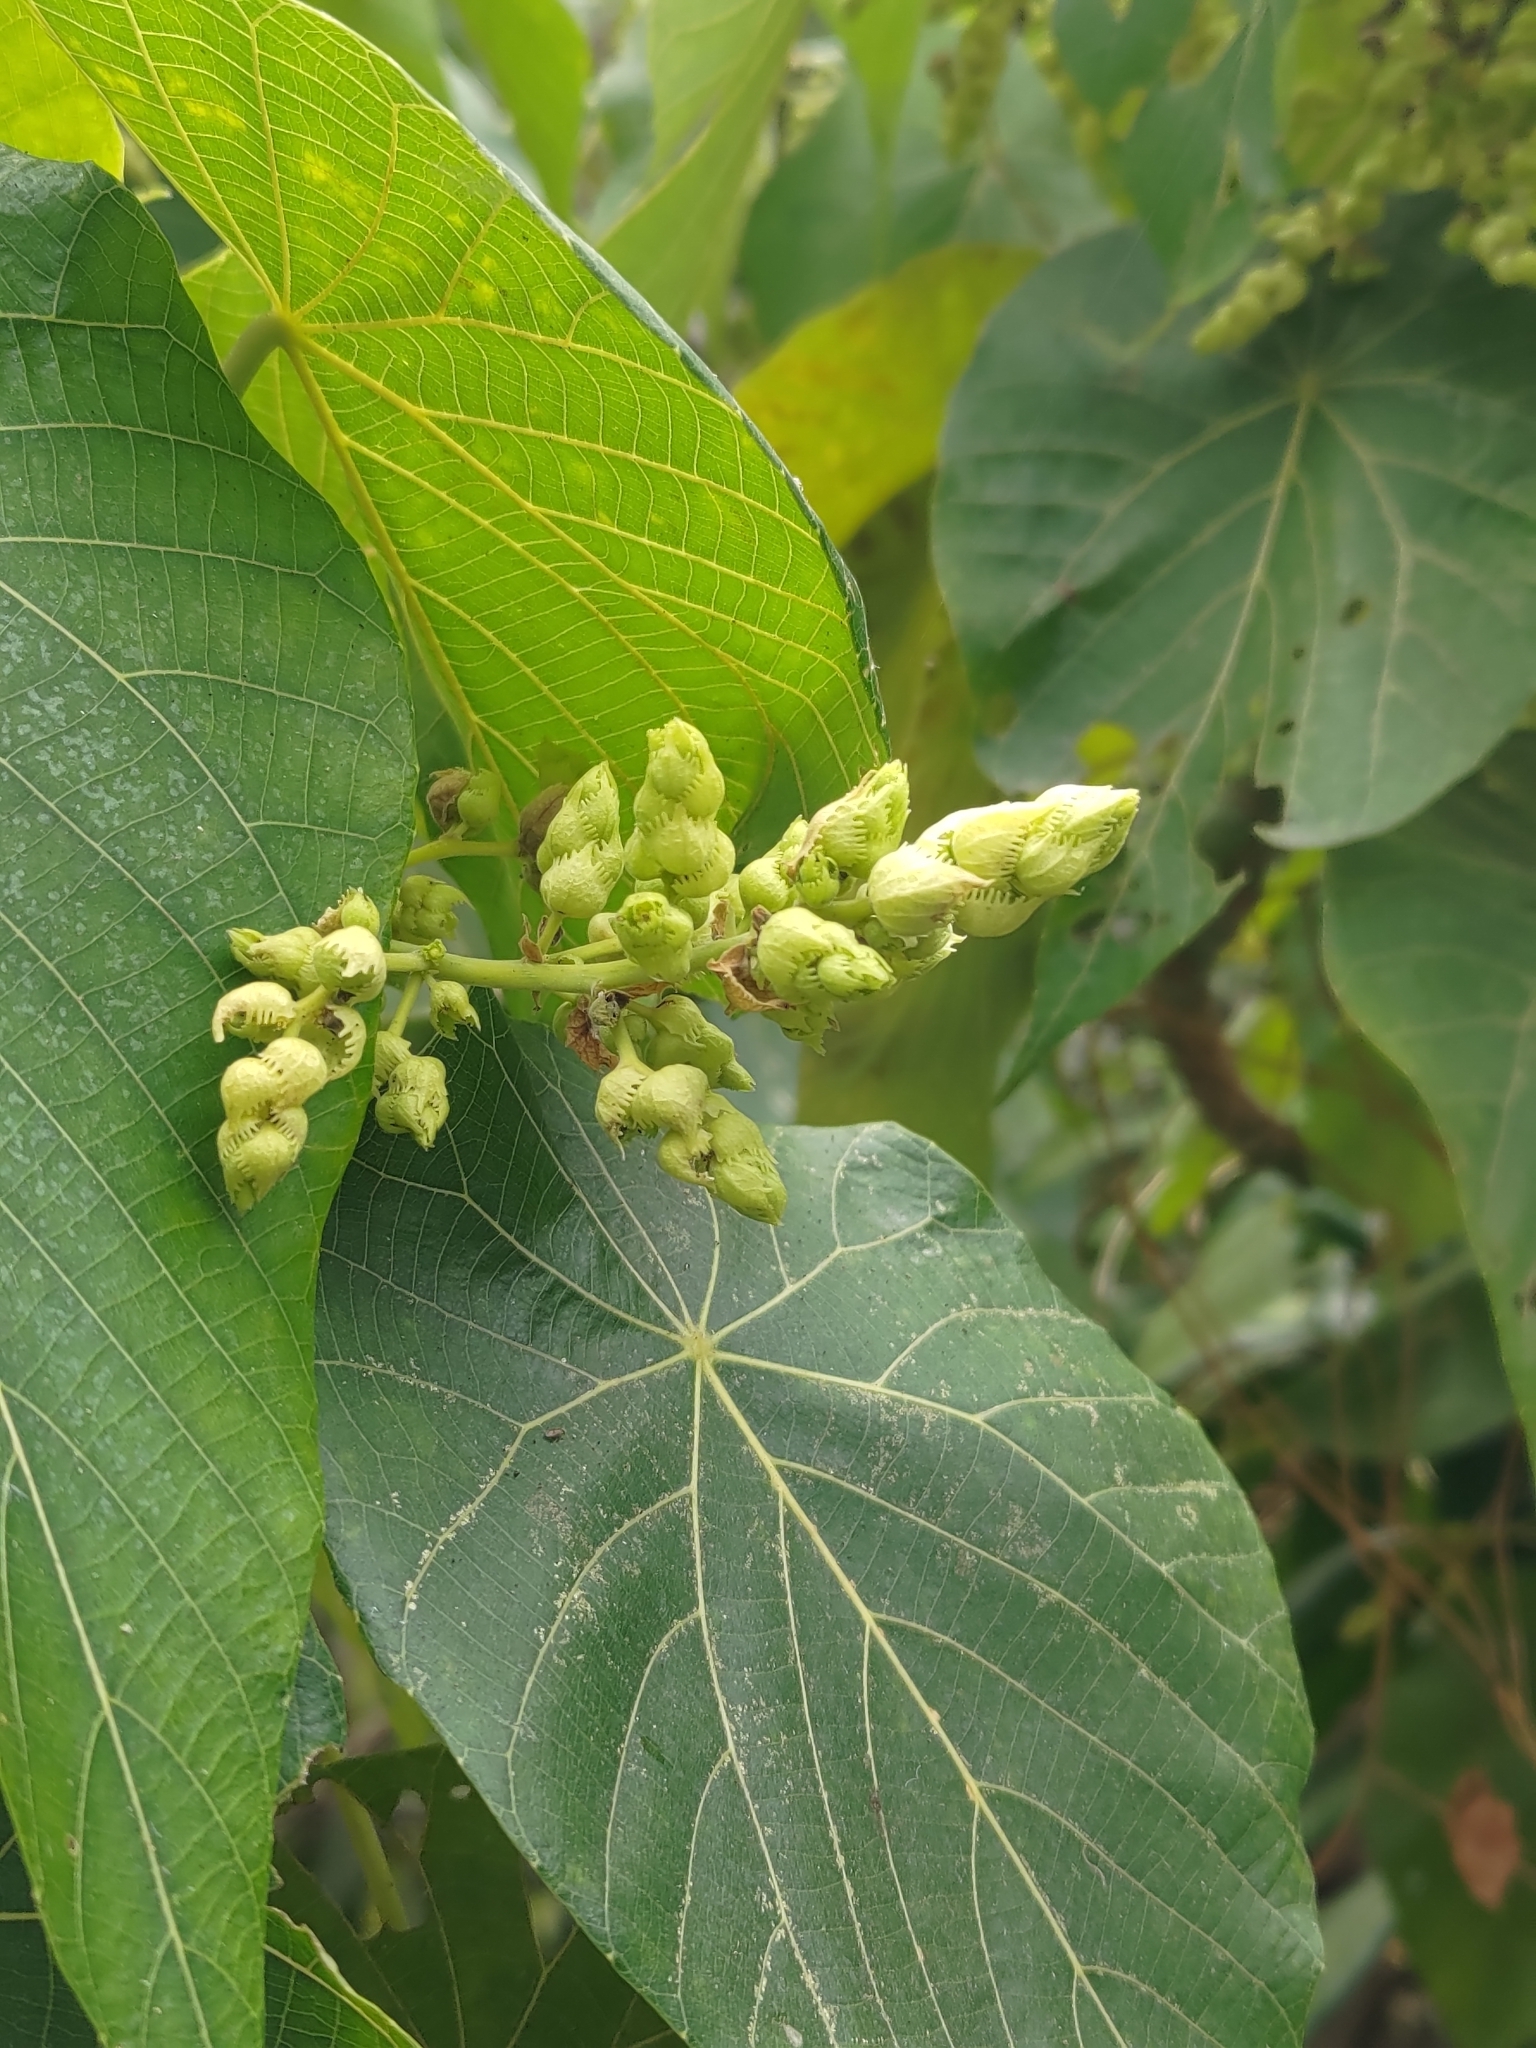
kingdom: Plantae
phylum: Tracheophyta
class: Magnoliopsida
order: Malpighiales
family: Euphorbiaceae
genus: Macaranga
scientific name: Macaranga tanarius
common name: Parasol leaf tree
